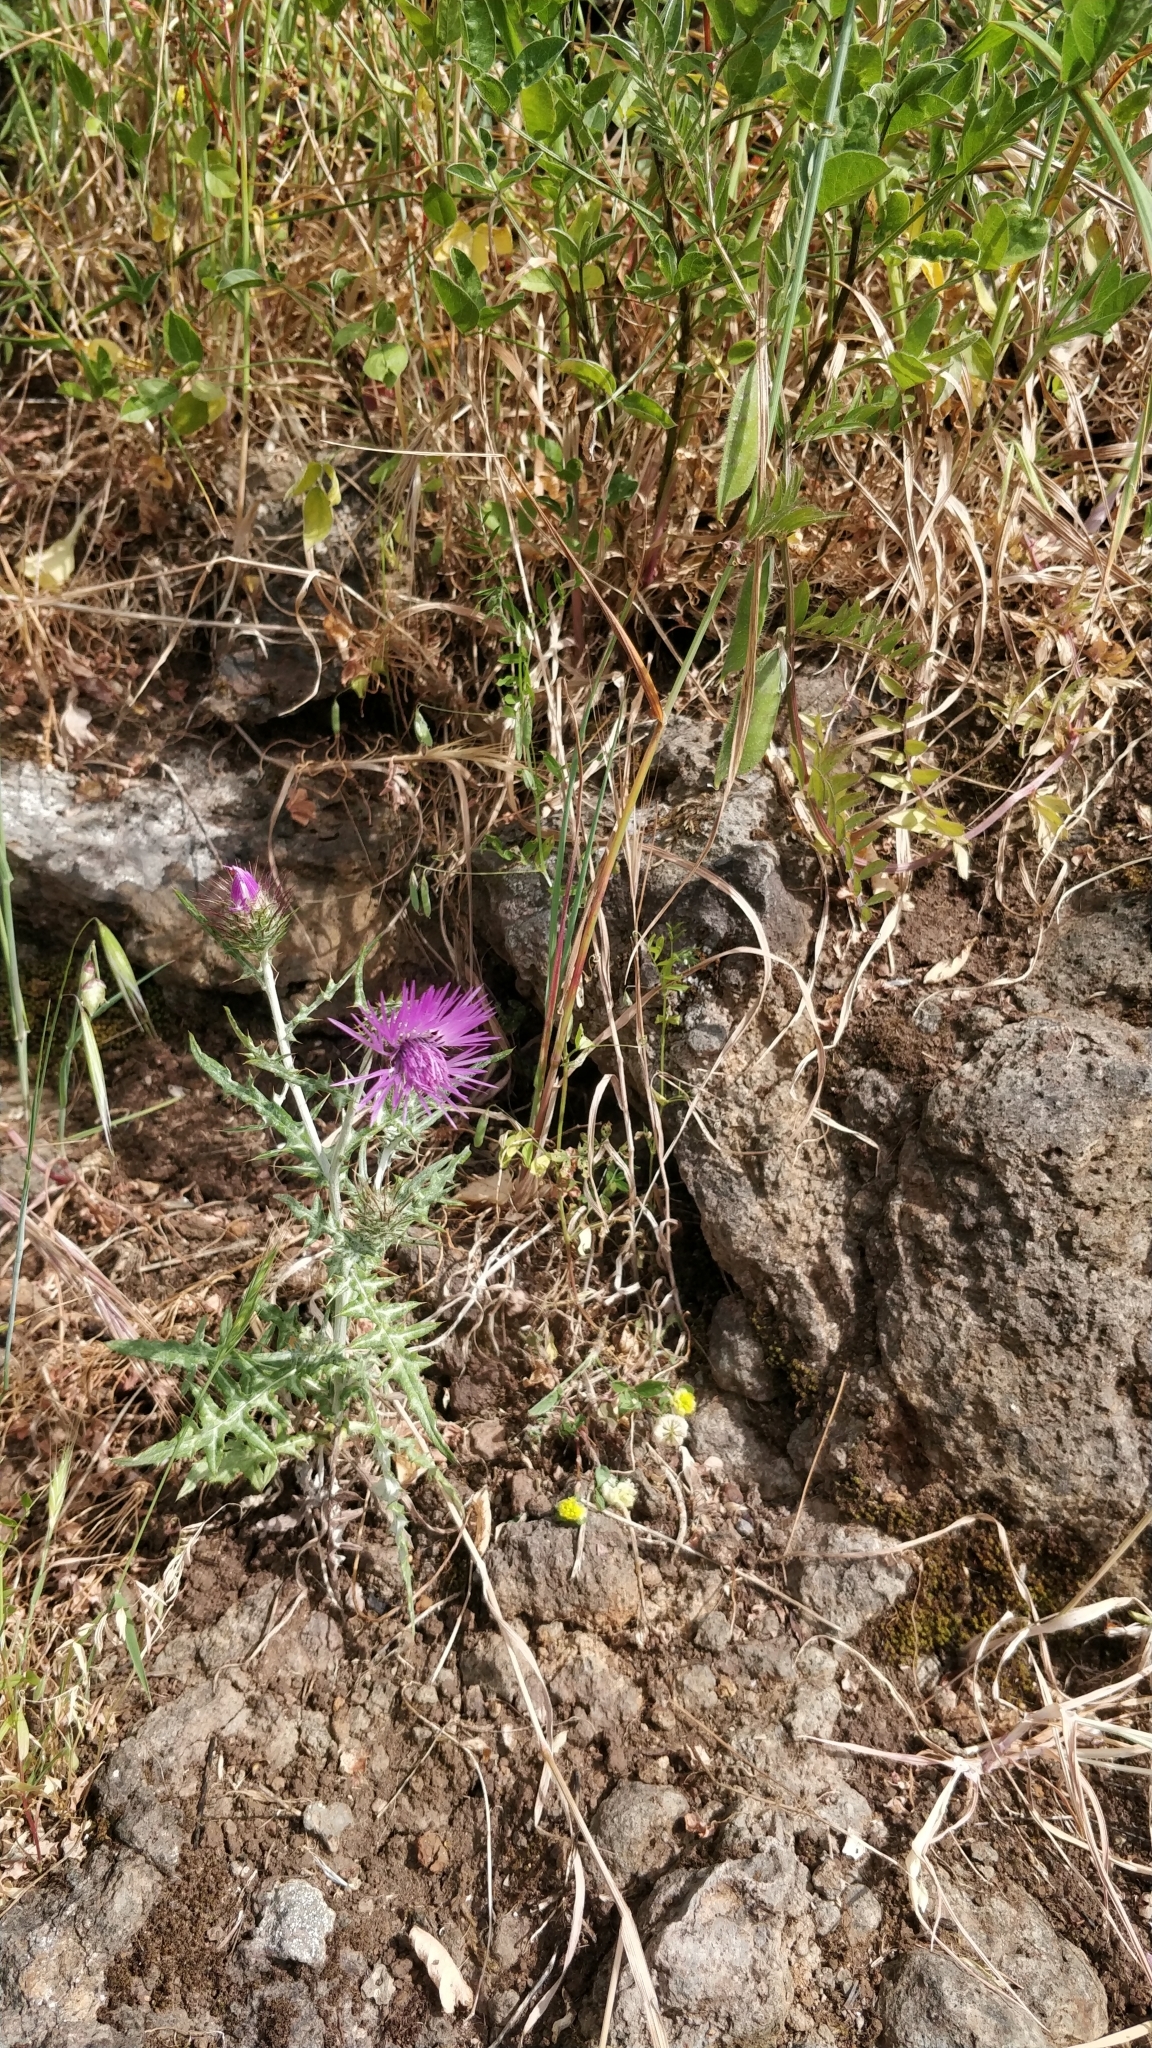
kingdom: Plantae
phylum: Tracheophyta
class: Magnoliopsida
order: Asterales
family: Asteraceae
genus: Galactites
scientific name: Galactites tomentosa
